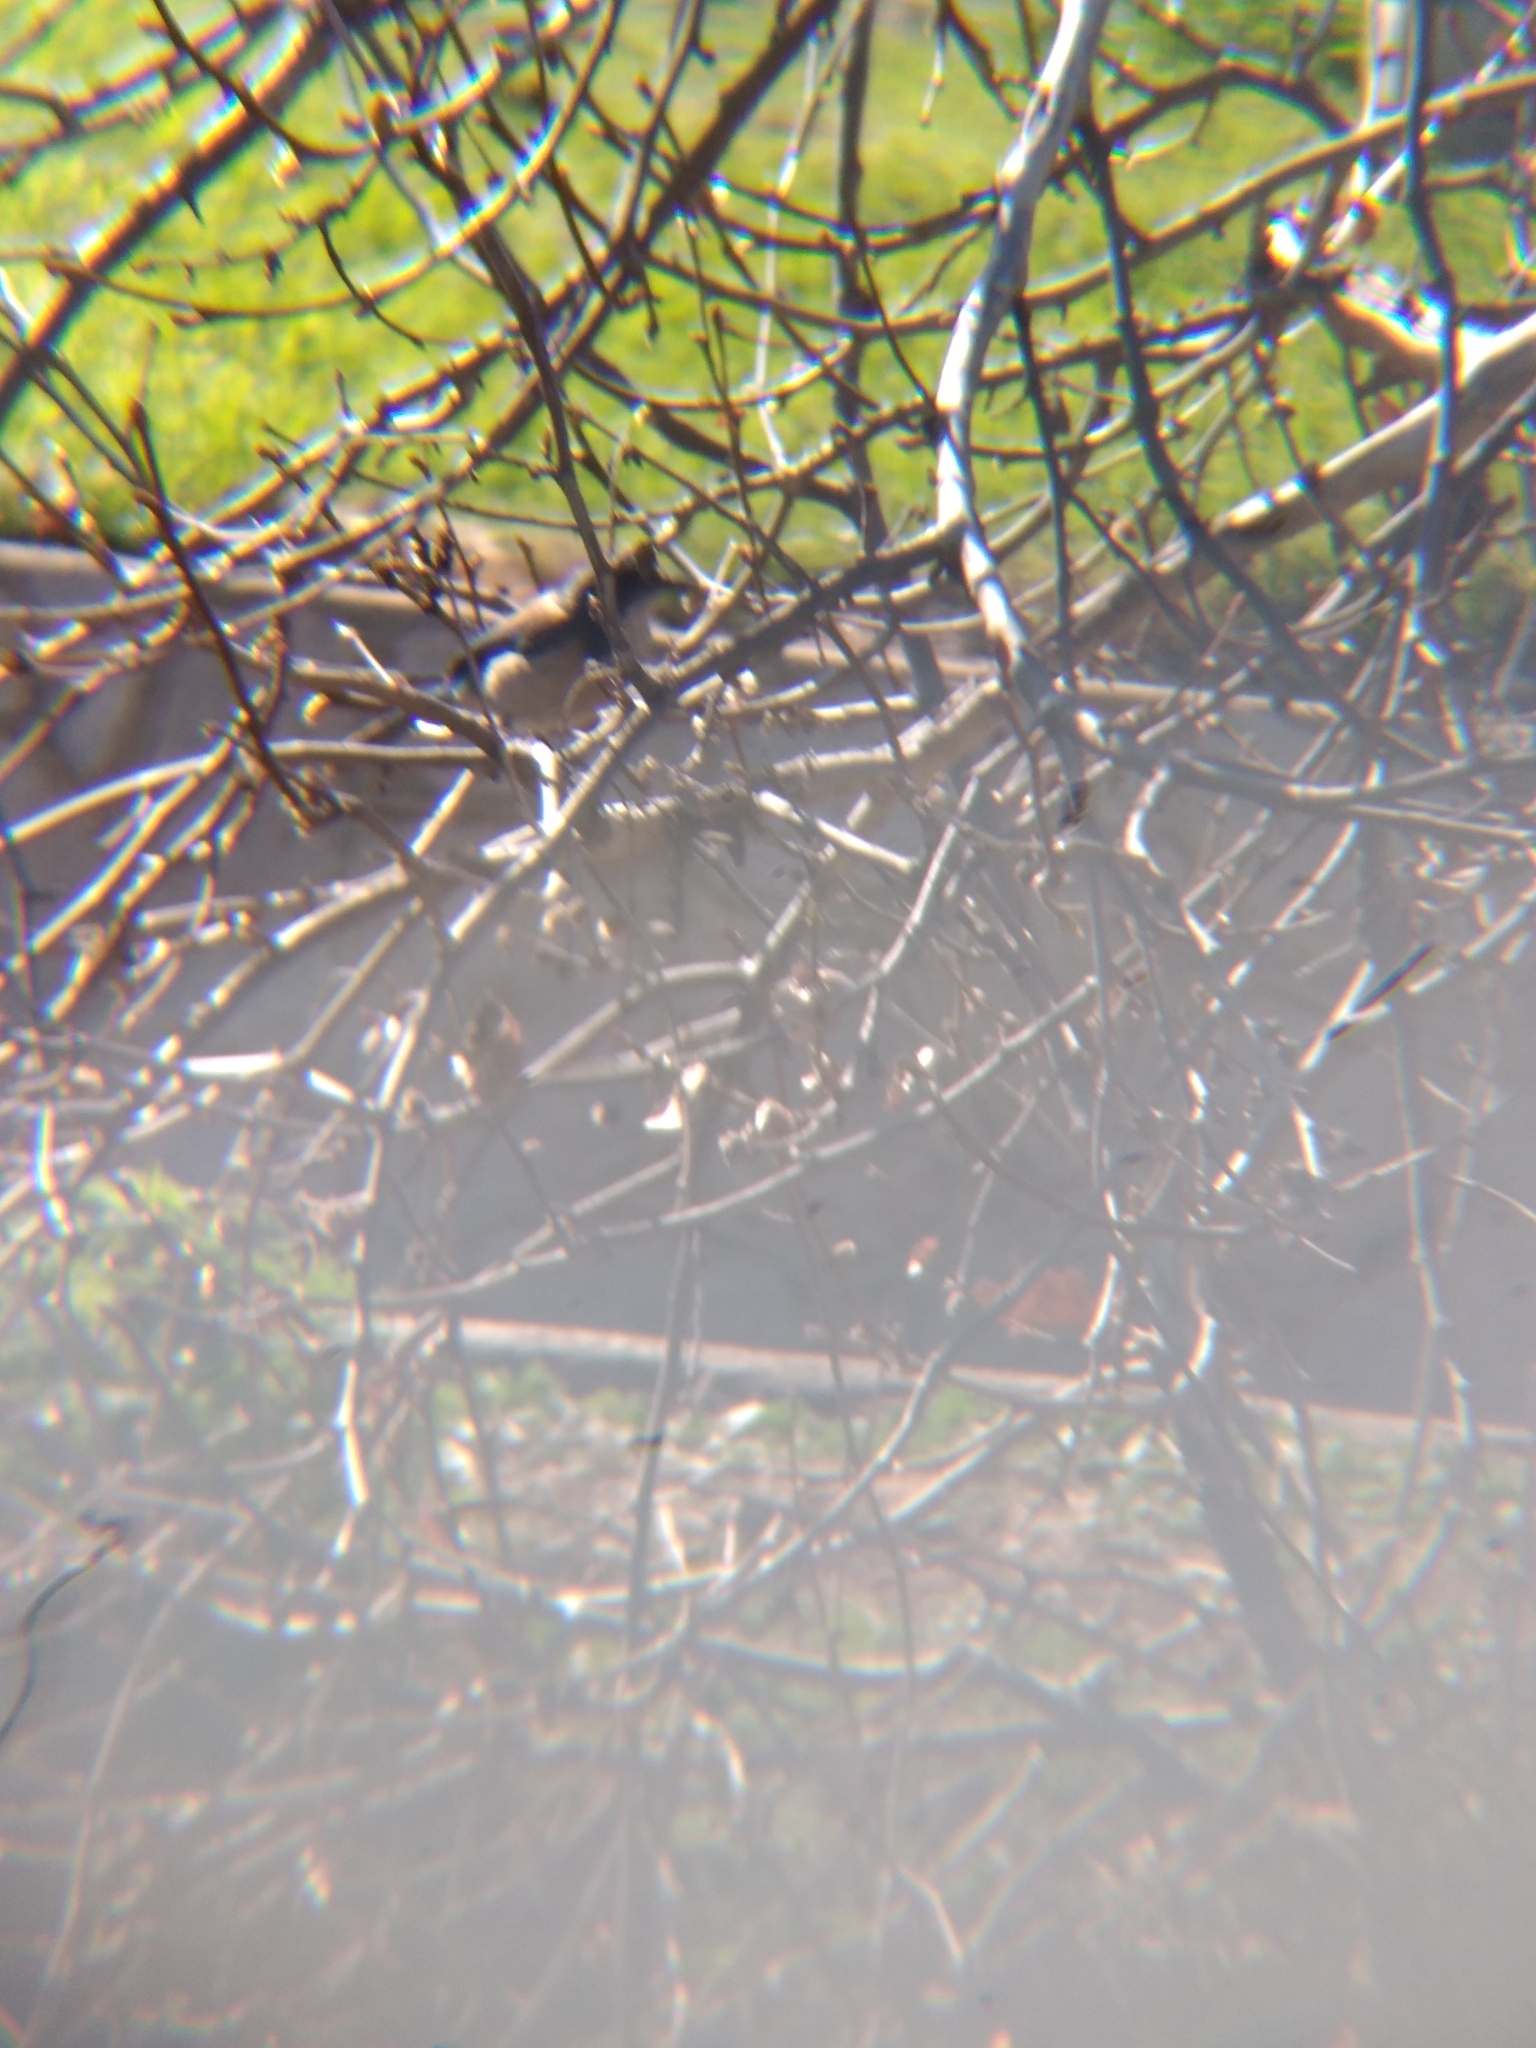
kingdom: Animalia
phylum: Chordata
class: Aves
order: Passeriformes
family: Corvidae
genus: Aphelocoma
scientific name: Aphelocoma californica
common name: California scrub-jay
